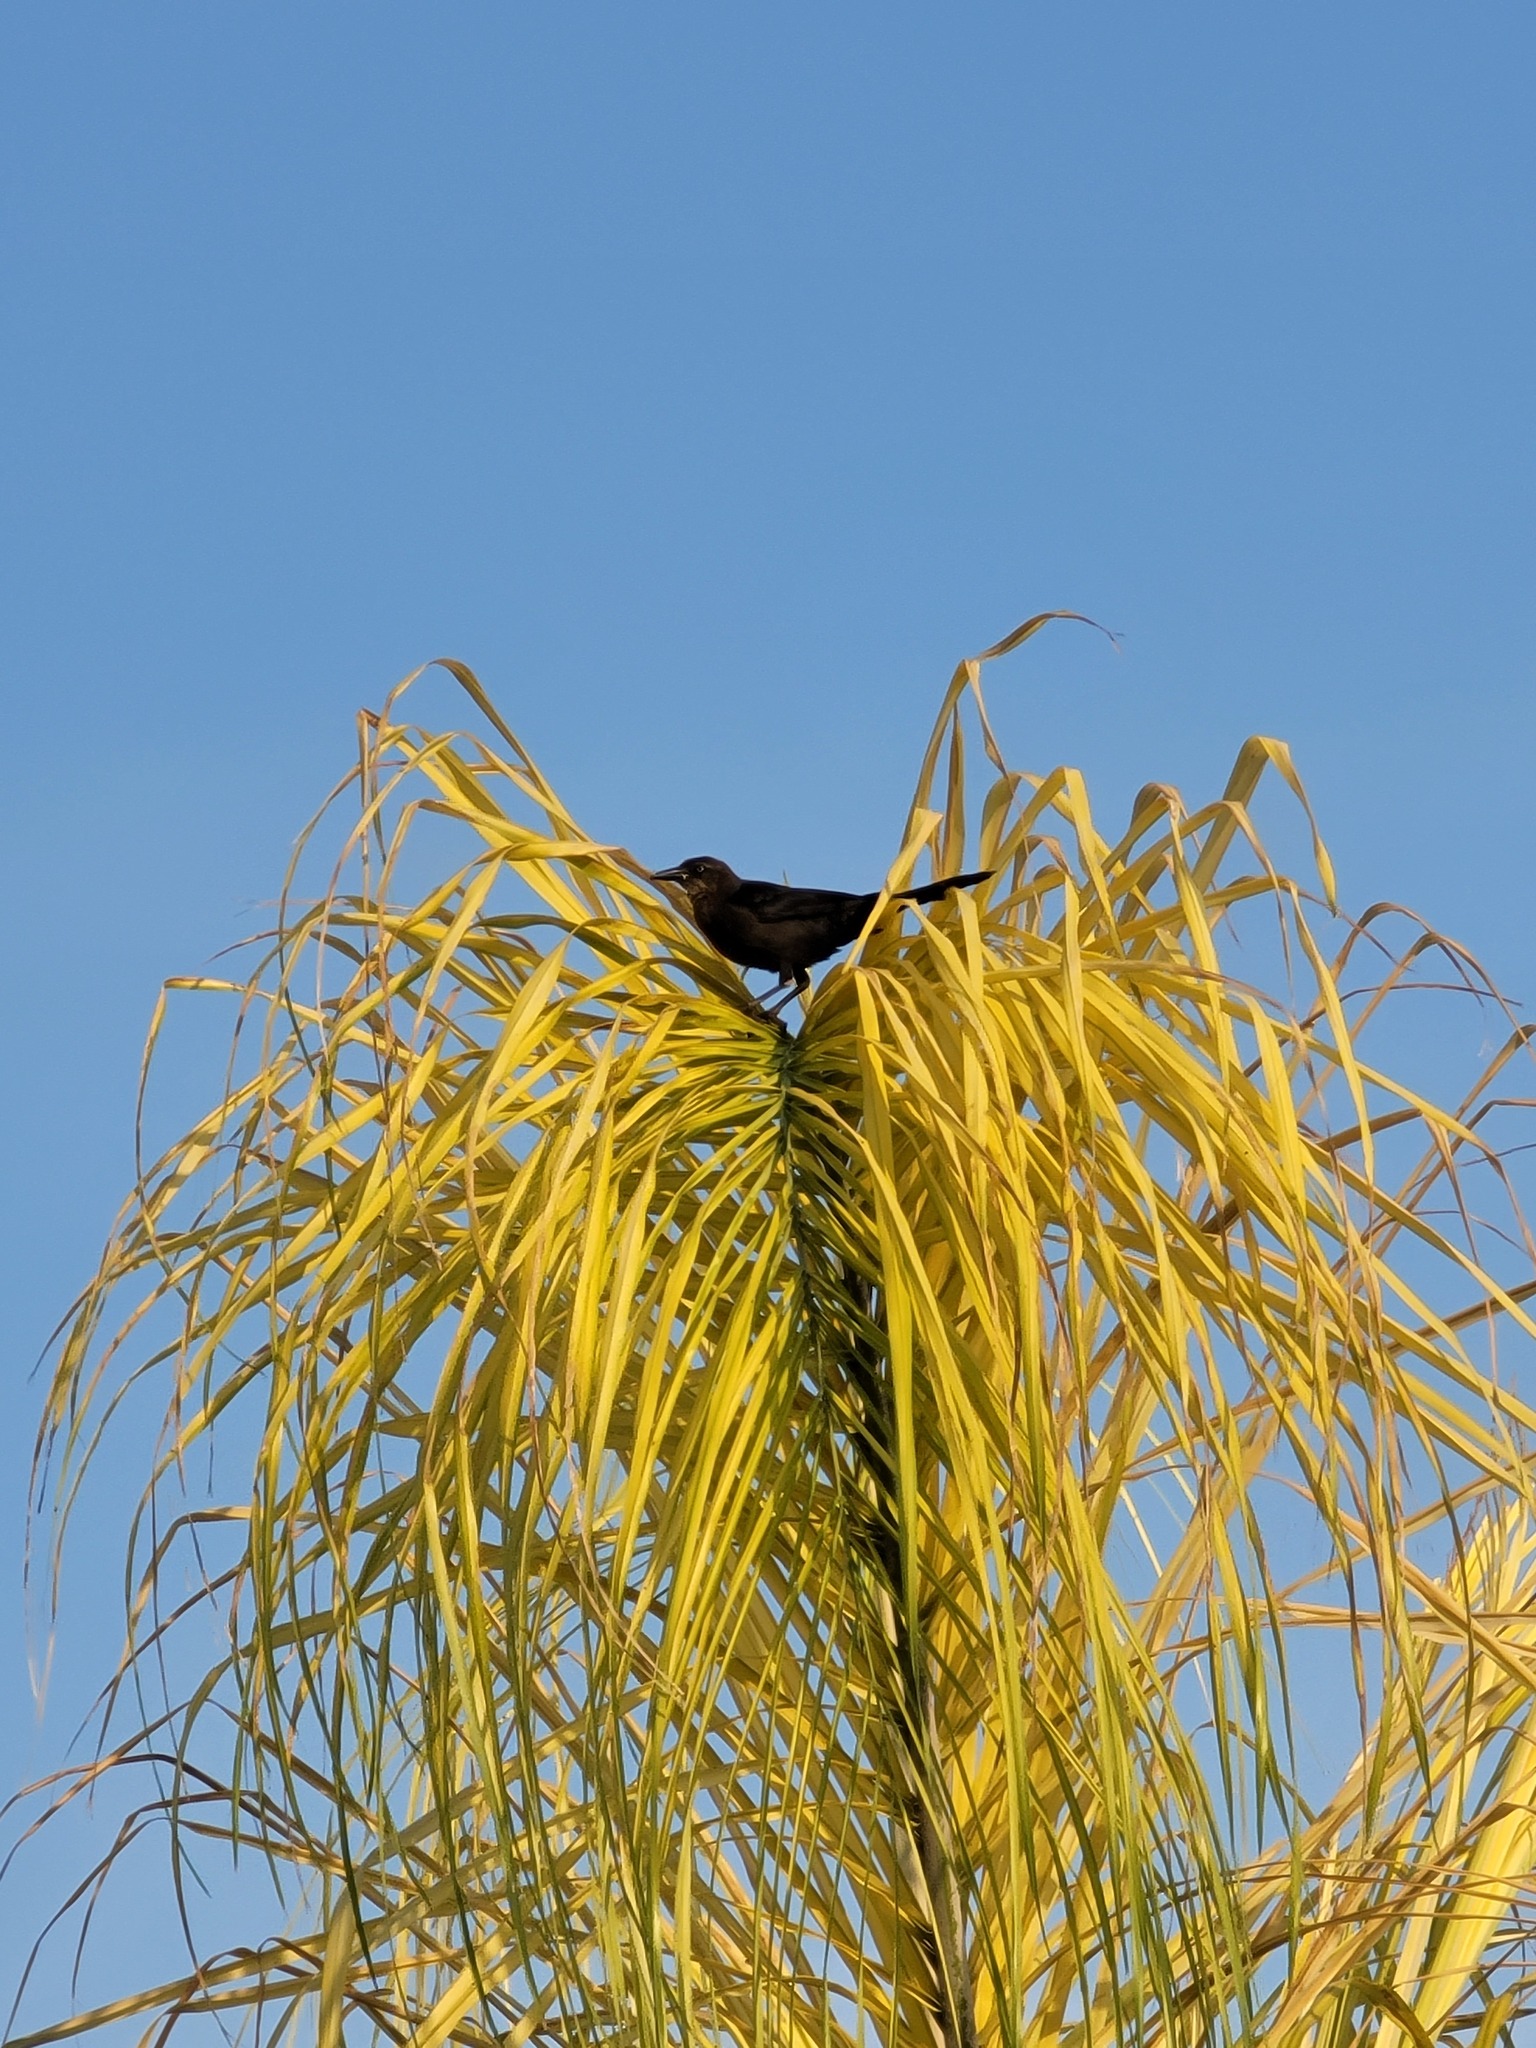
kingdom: Animalia
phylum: Chordata
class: Aves
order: Passeriformes
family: Icteridae
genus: Quiscalus
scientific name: Quiscalus mexicanus
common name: Great-tailed grackle
